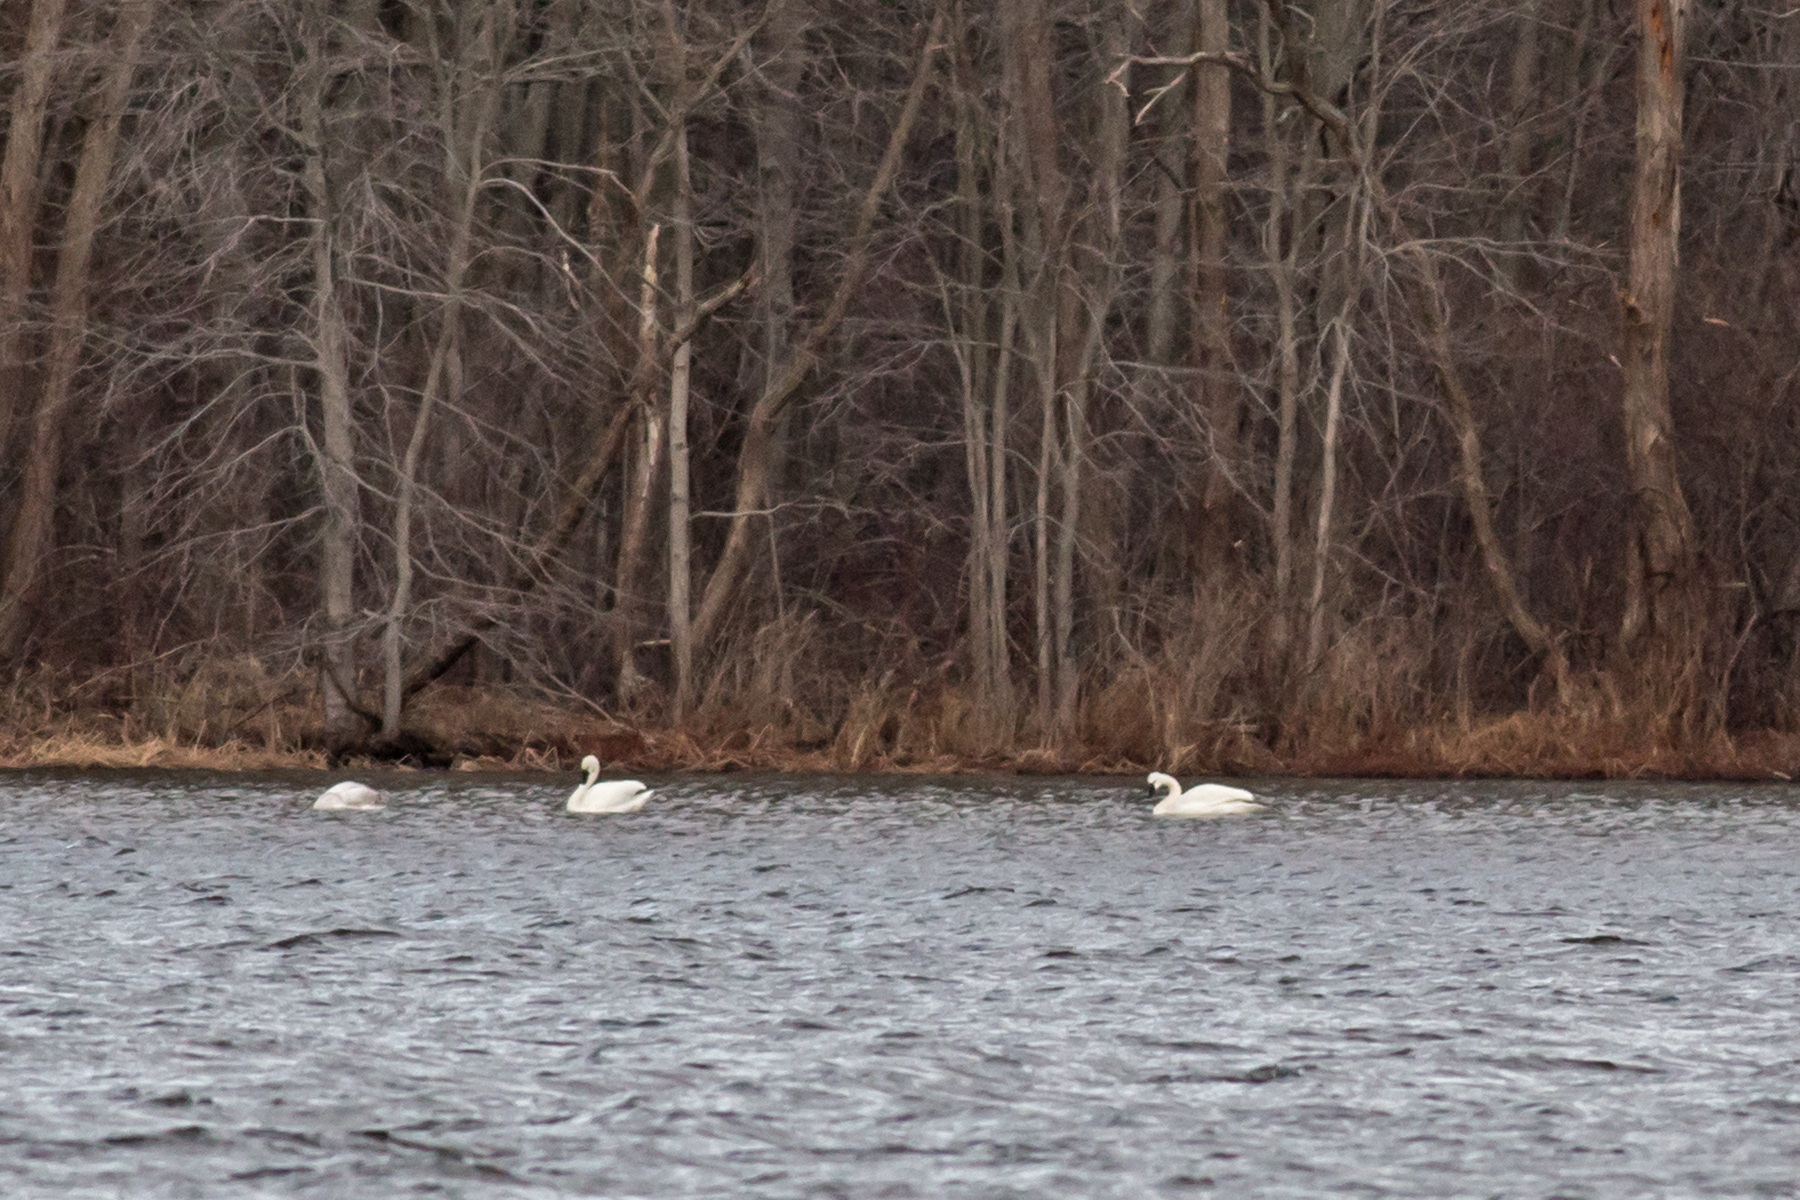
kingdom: Animalia
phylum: Chordata
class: Aves
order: Anseriformes
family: Anatidae
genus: Cygnus
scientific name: Cygnus buccinator
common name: Trumpeter swan
